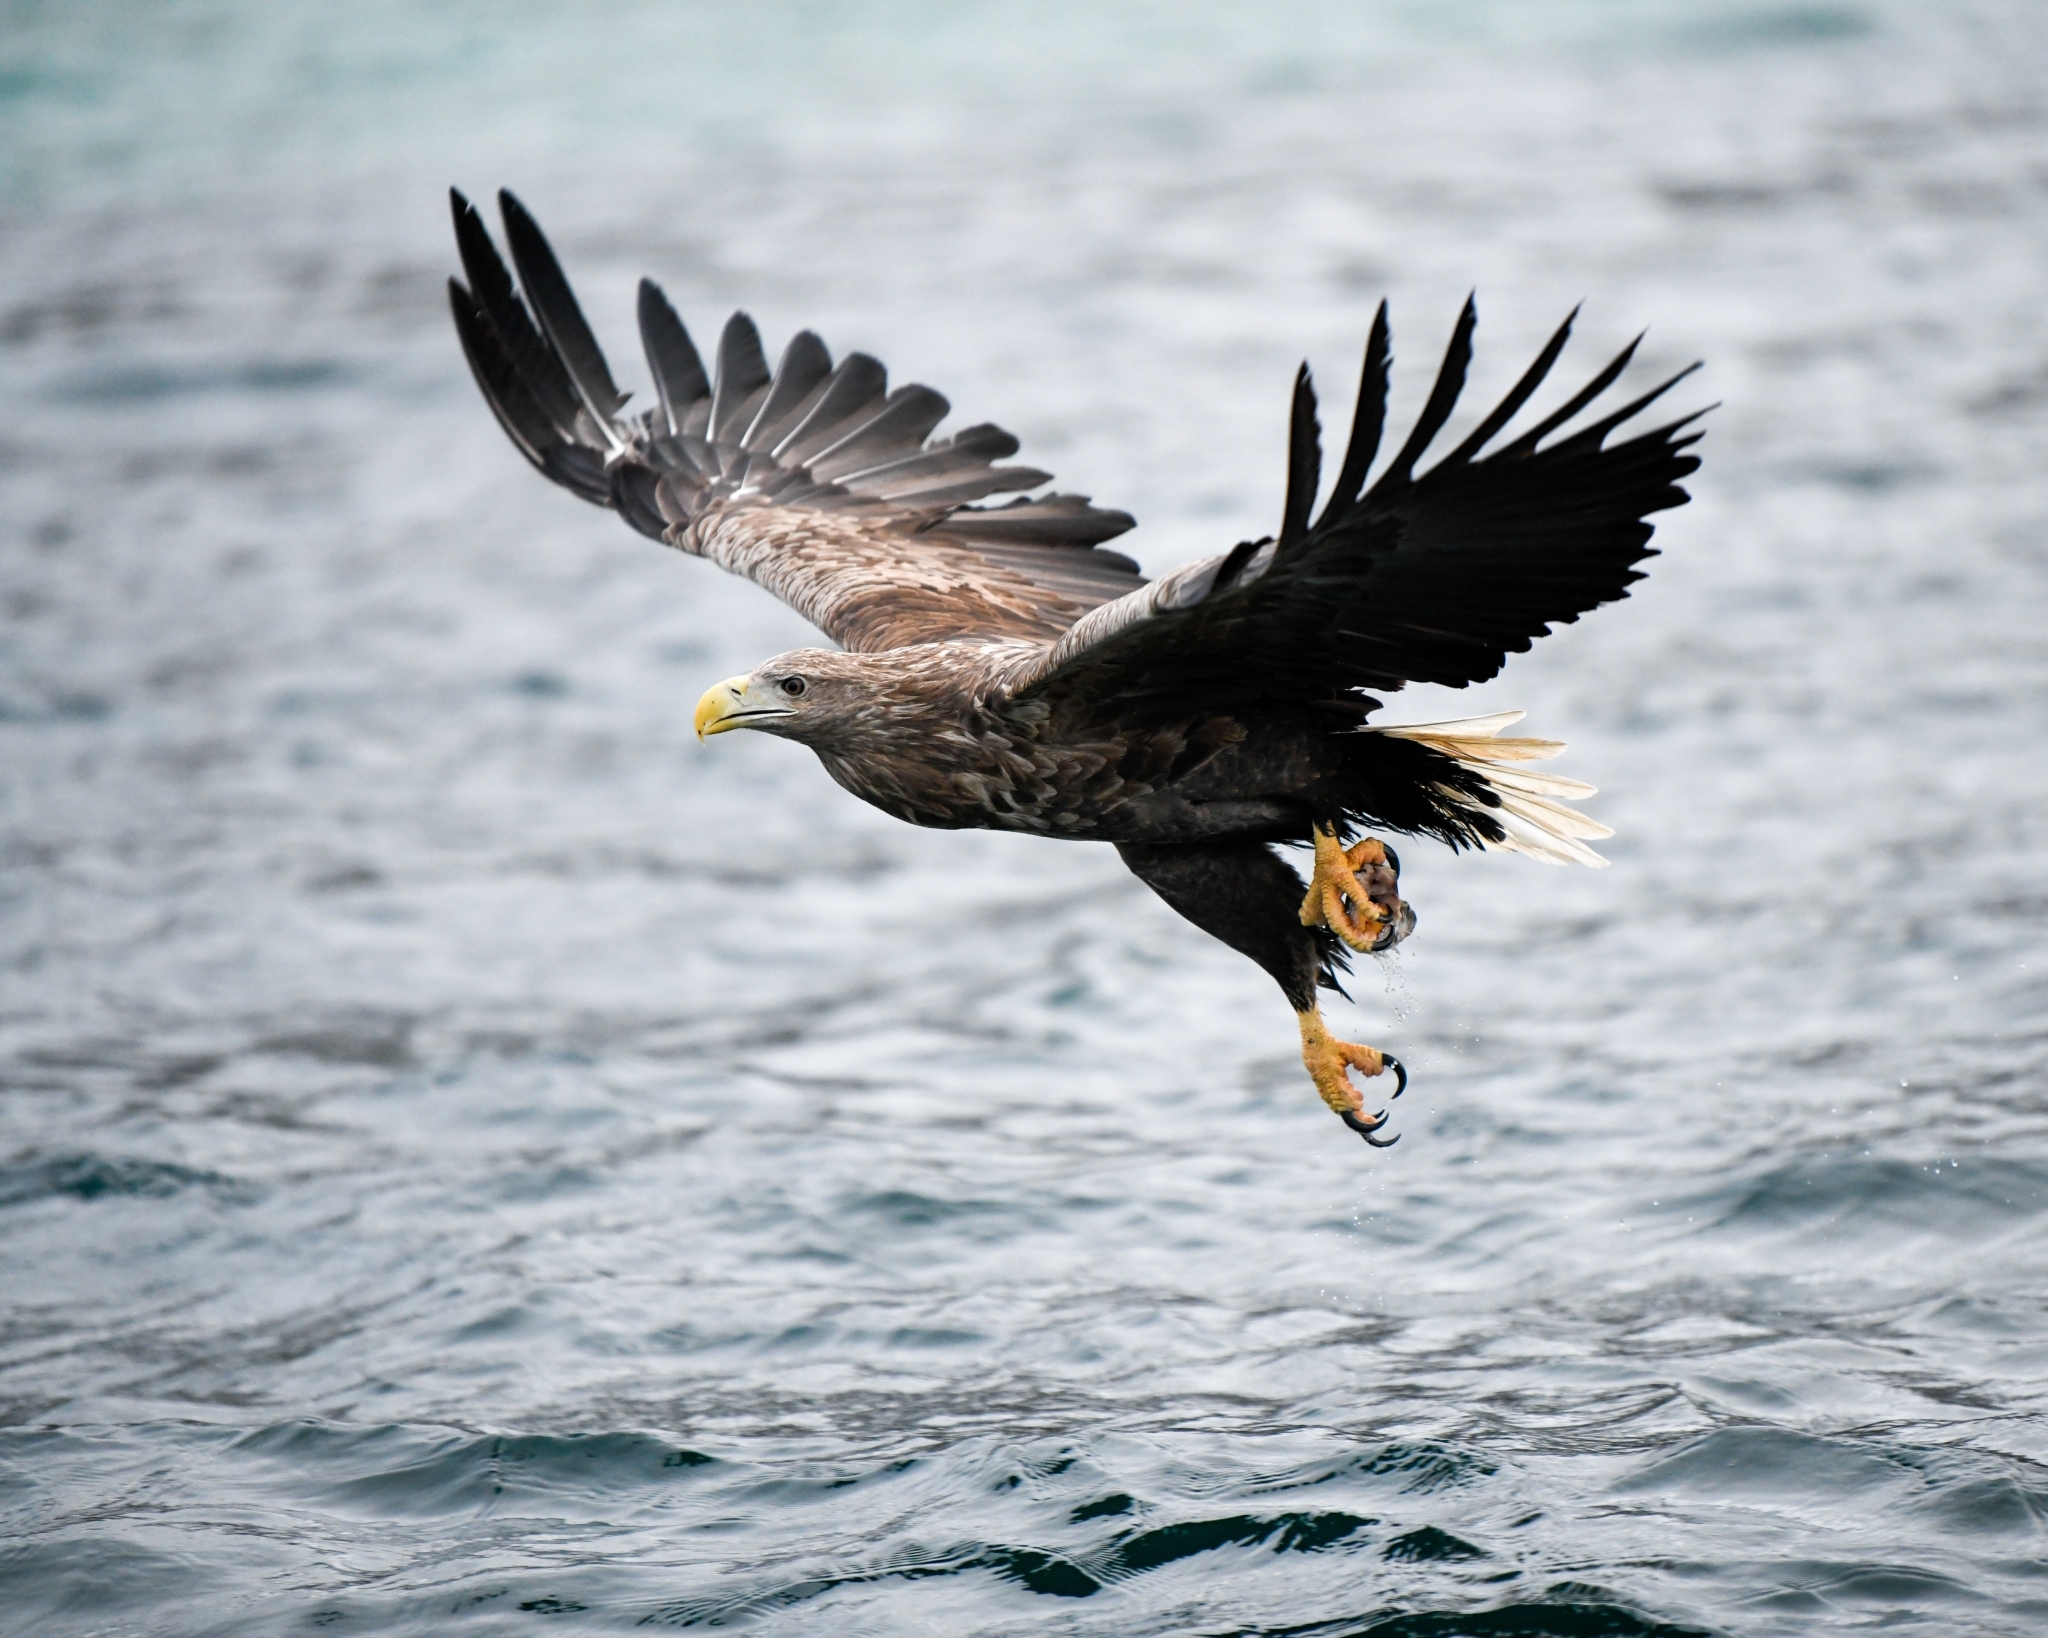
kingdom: Animalia
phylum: Chordata
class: Aves
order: Accipitriformes
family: Accipitridae
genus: Haliaeetus
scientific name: Haliaeetus albicilla
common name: White-tailed eagle
